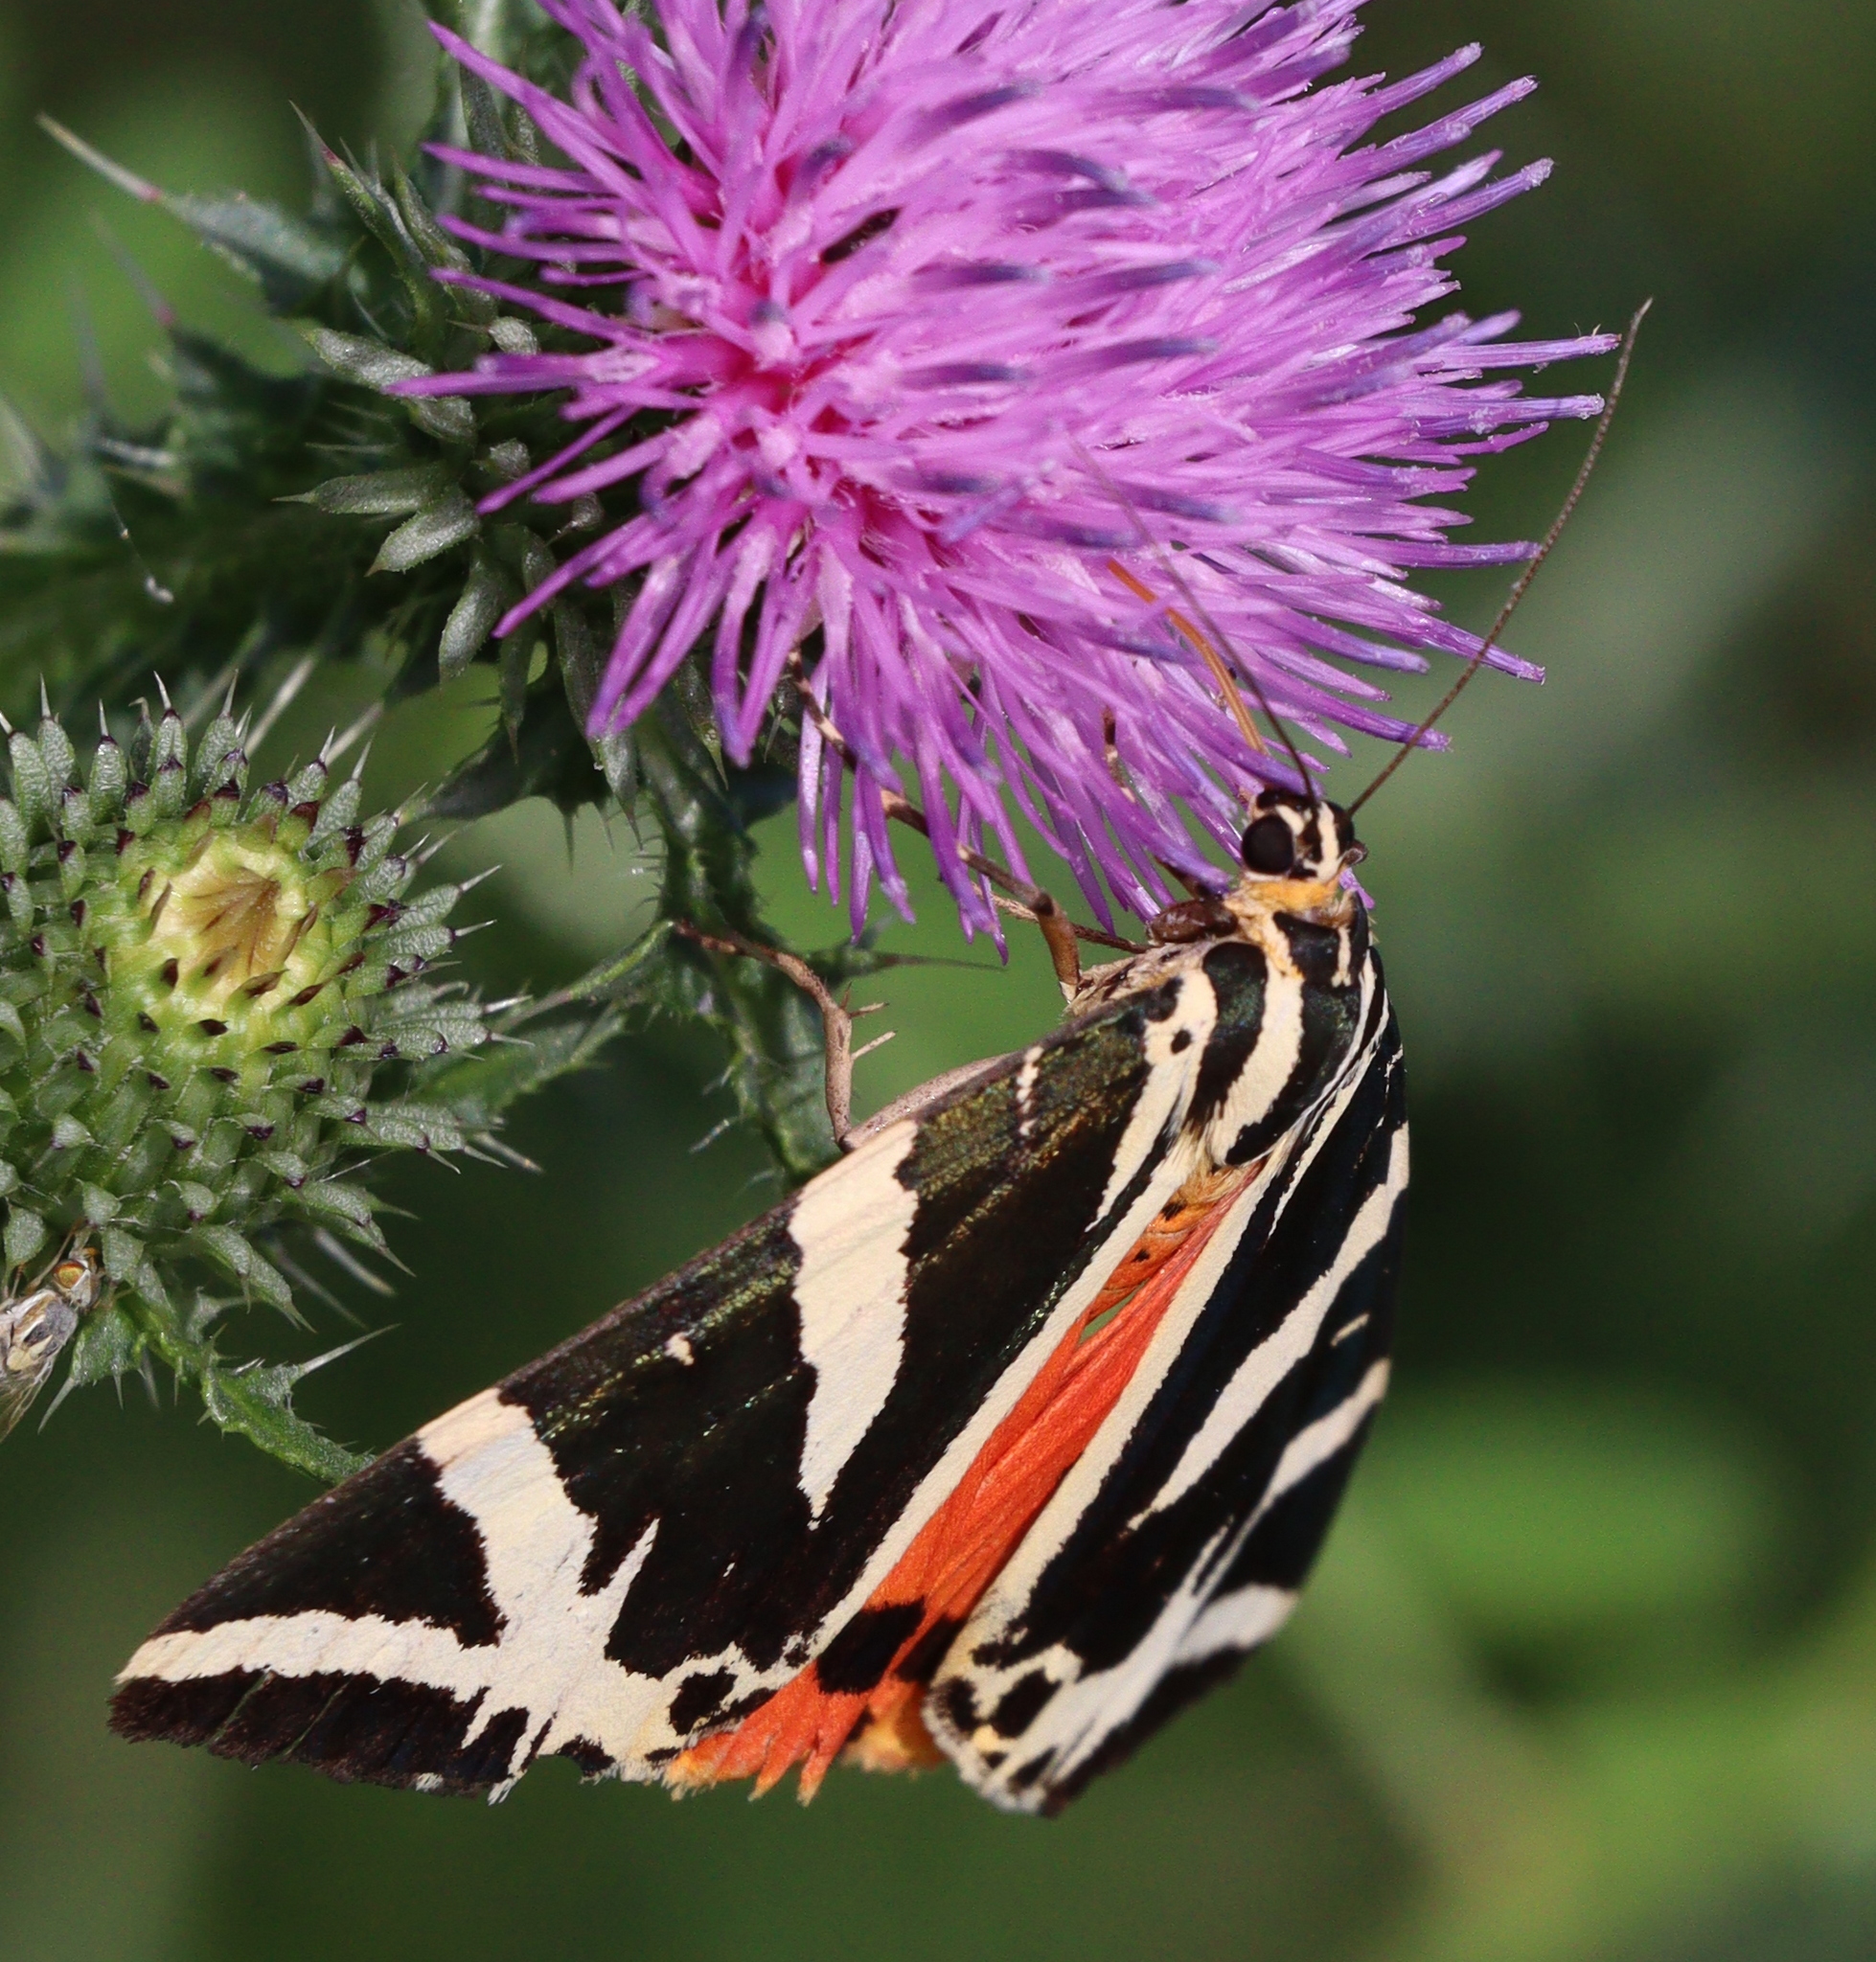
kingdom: Animalia
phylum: Arthropoda
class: Insecta
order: Lepidoptera
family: Erebidae
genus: Euplagia
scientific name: Euplagia quadripunctaria
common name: Jersey tiger
